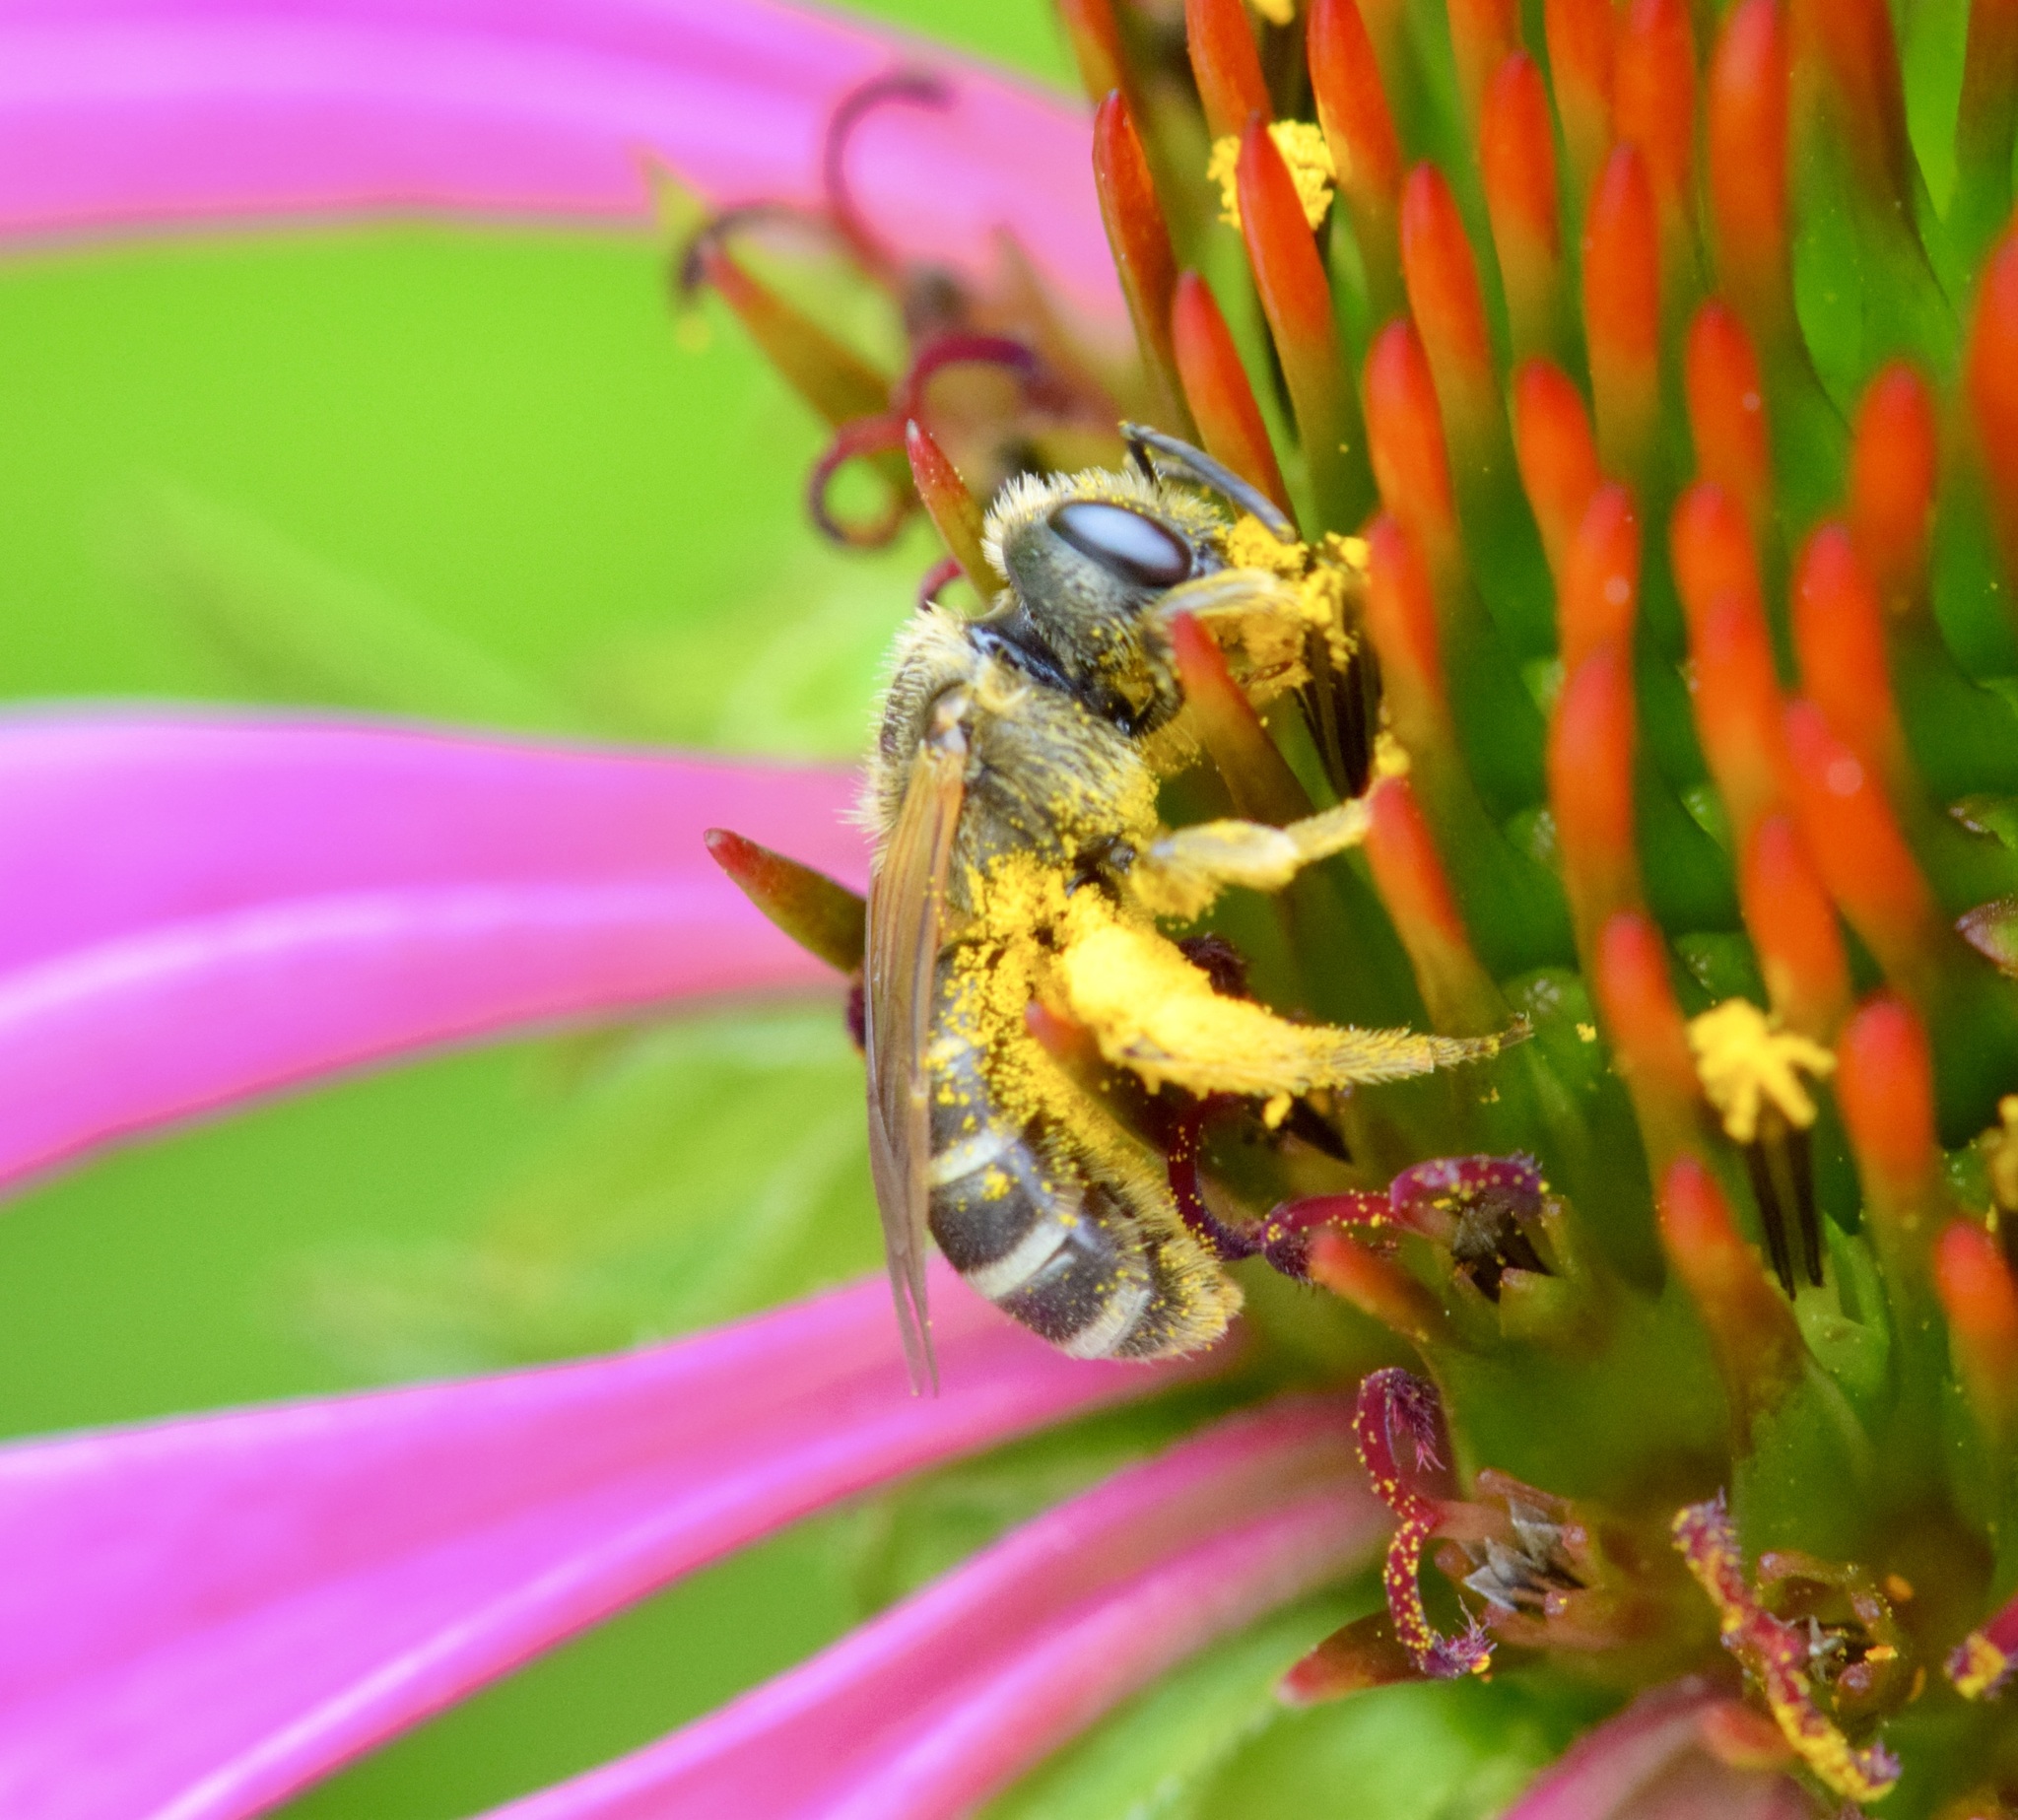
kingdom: Animalia
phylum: Arthropoda
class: Insecta
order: Hymenoptera
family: Halictidae
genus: Halictus
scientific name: Halictus ligatus
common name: Ligated furrow bee
